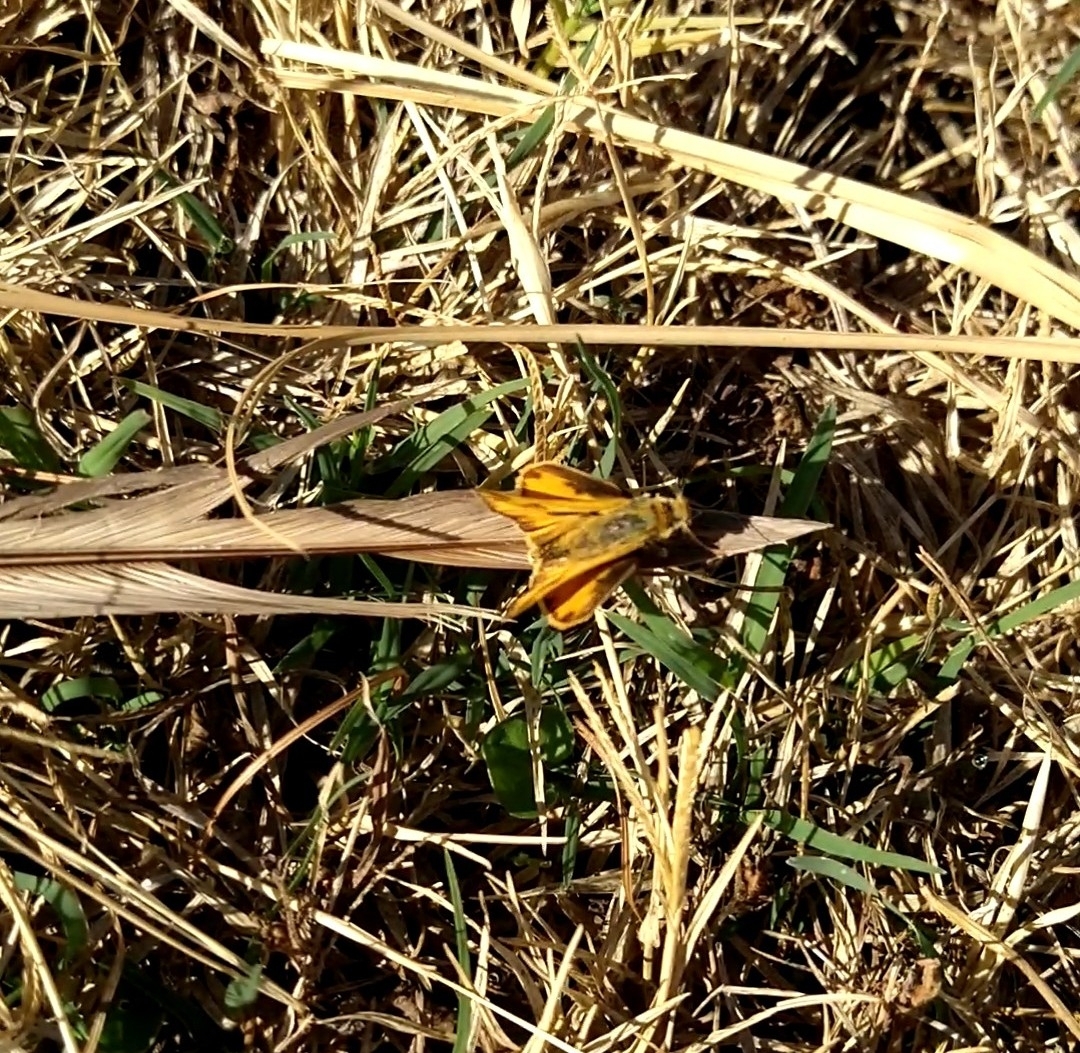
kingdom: Animalia
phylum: Arthropoda
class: Insecta
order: Lepidoptera
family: Hesperiidae
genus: Hylephila
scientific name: Hylephila phyleus
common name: Fiery skipper
